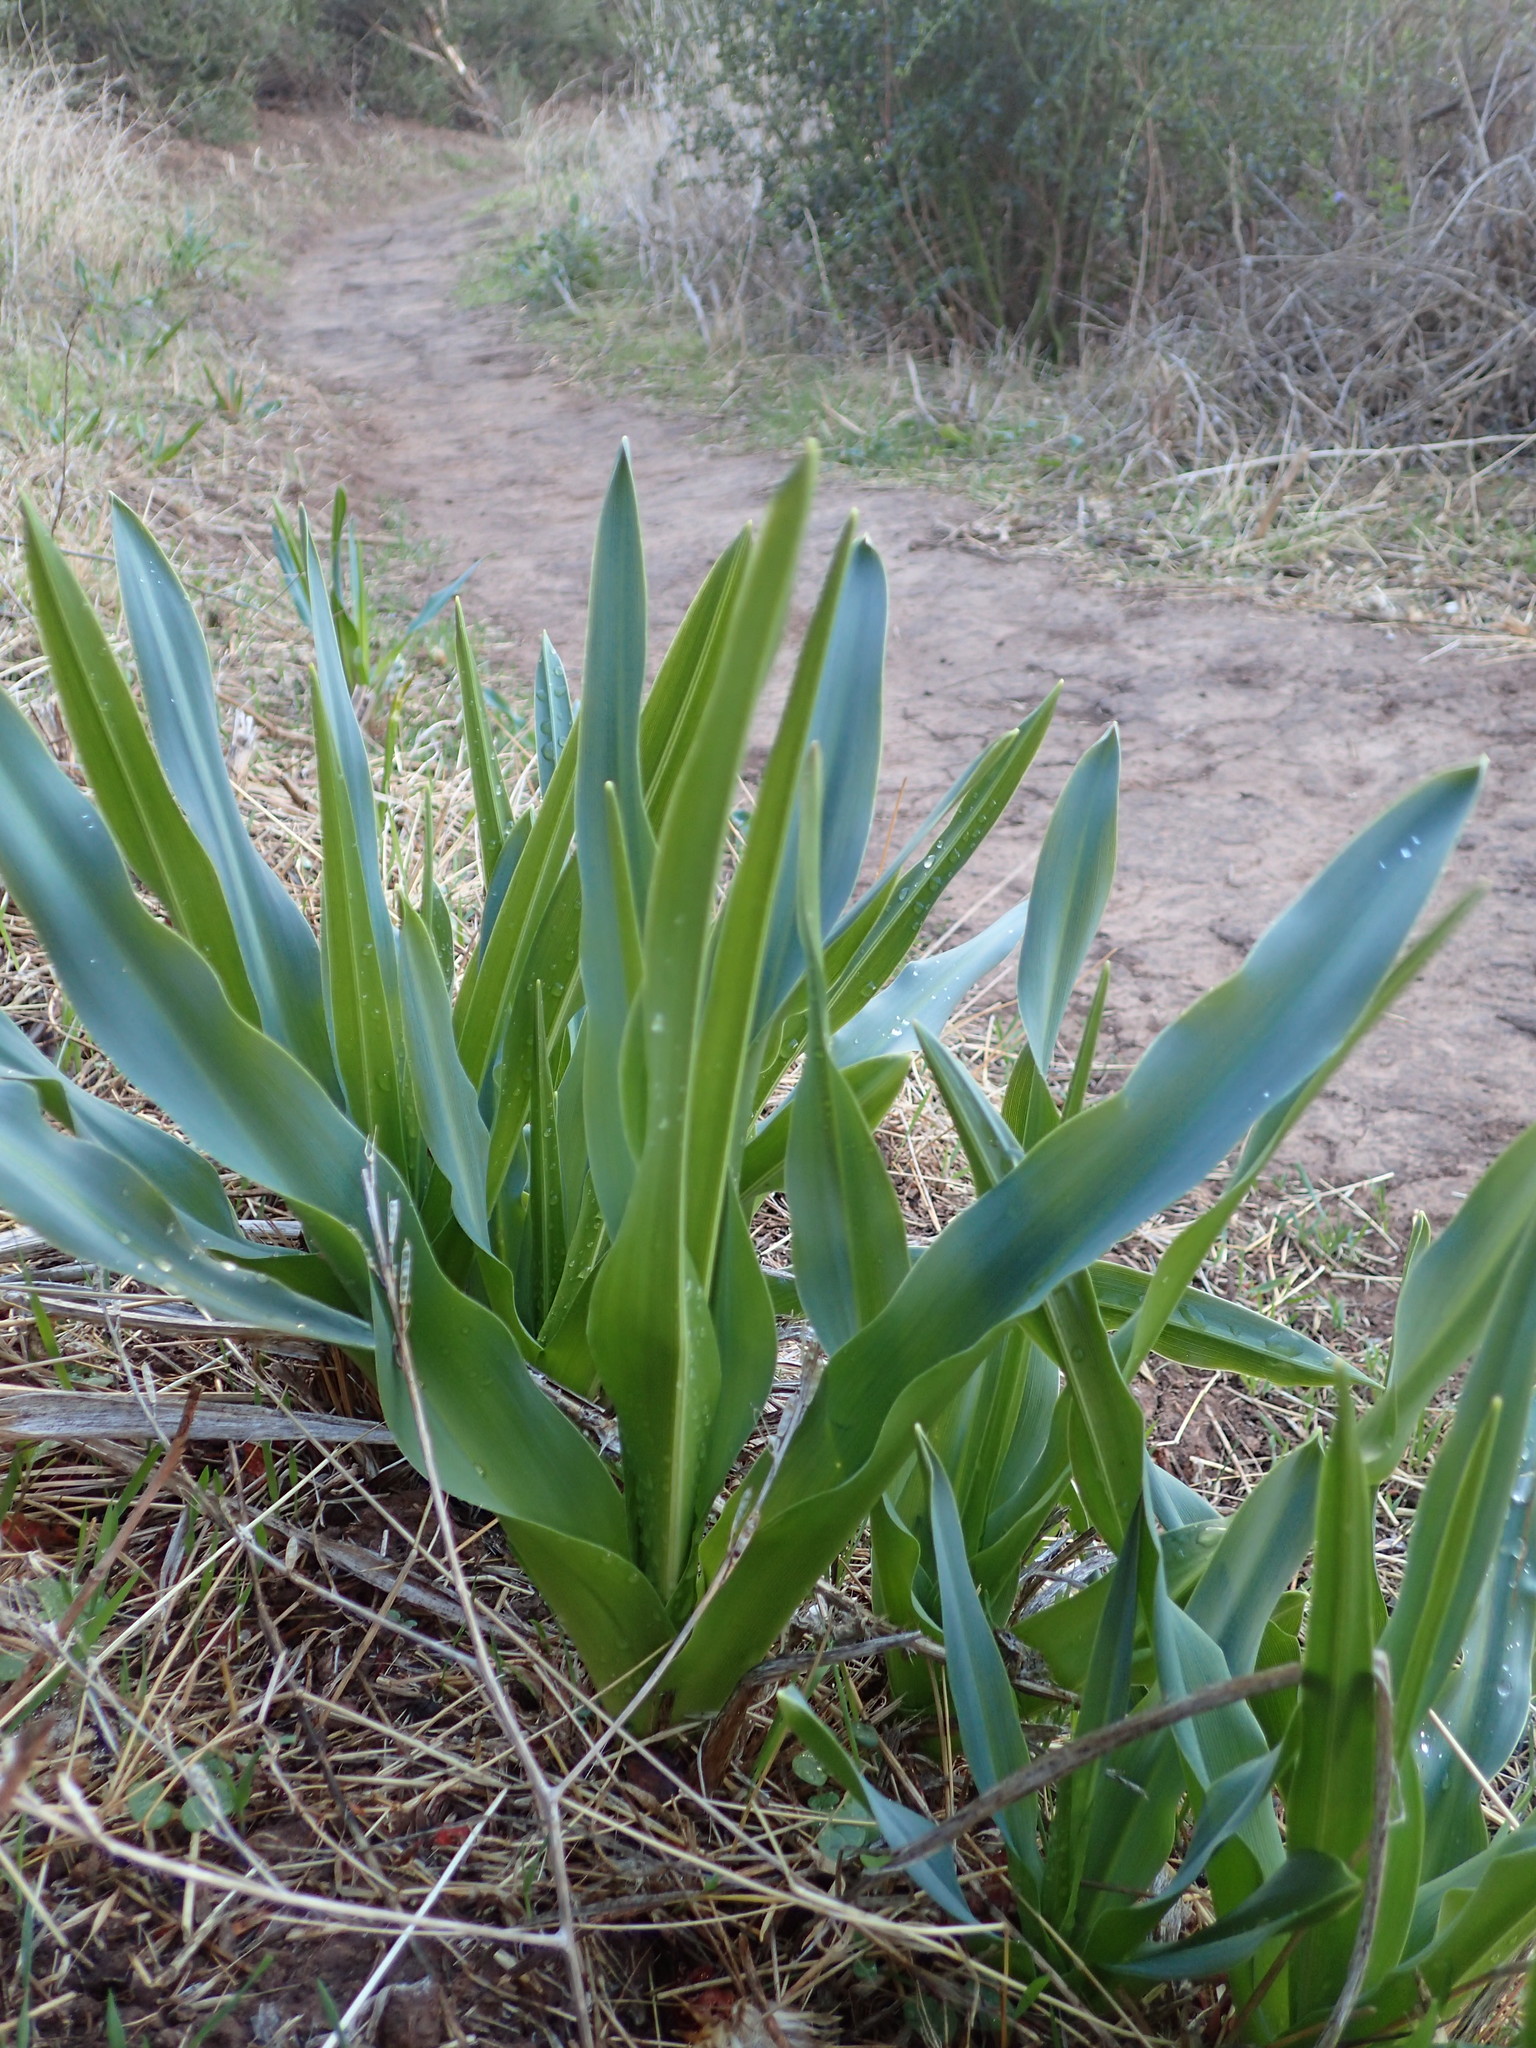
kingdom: Plantae
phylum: Tracheophyta
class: Liliopsida
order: Asparagales
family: Asparagaceae
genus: Chlorogalum
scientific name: Chlorogalum pomeridianum
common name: Amole
